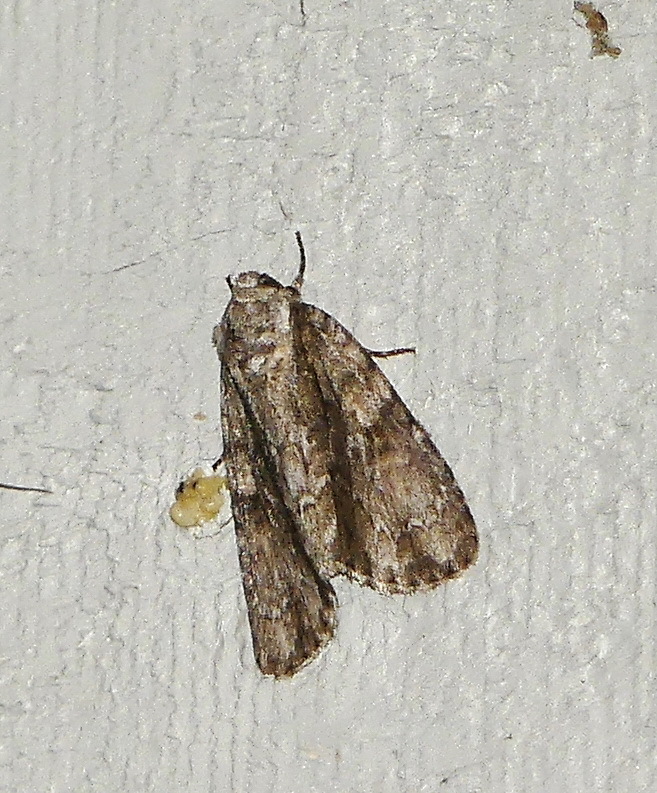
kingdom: Animalia
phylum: Arthropoda
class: Insecta
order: Lepidoptera
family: Noctuidae
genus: Acronicta
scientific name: Acronicta connecta
